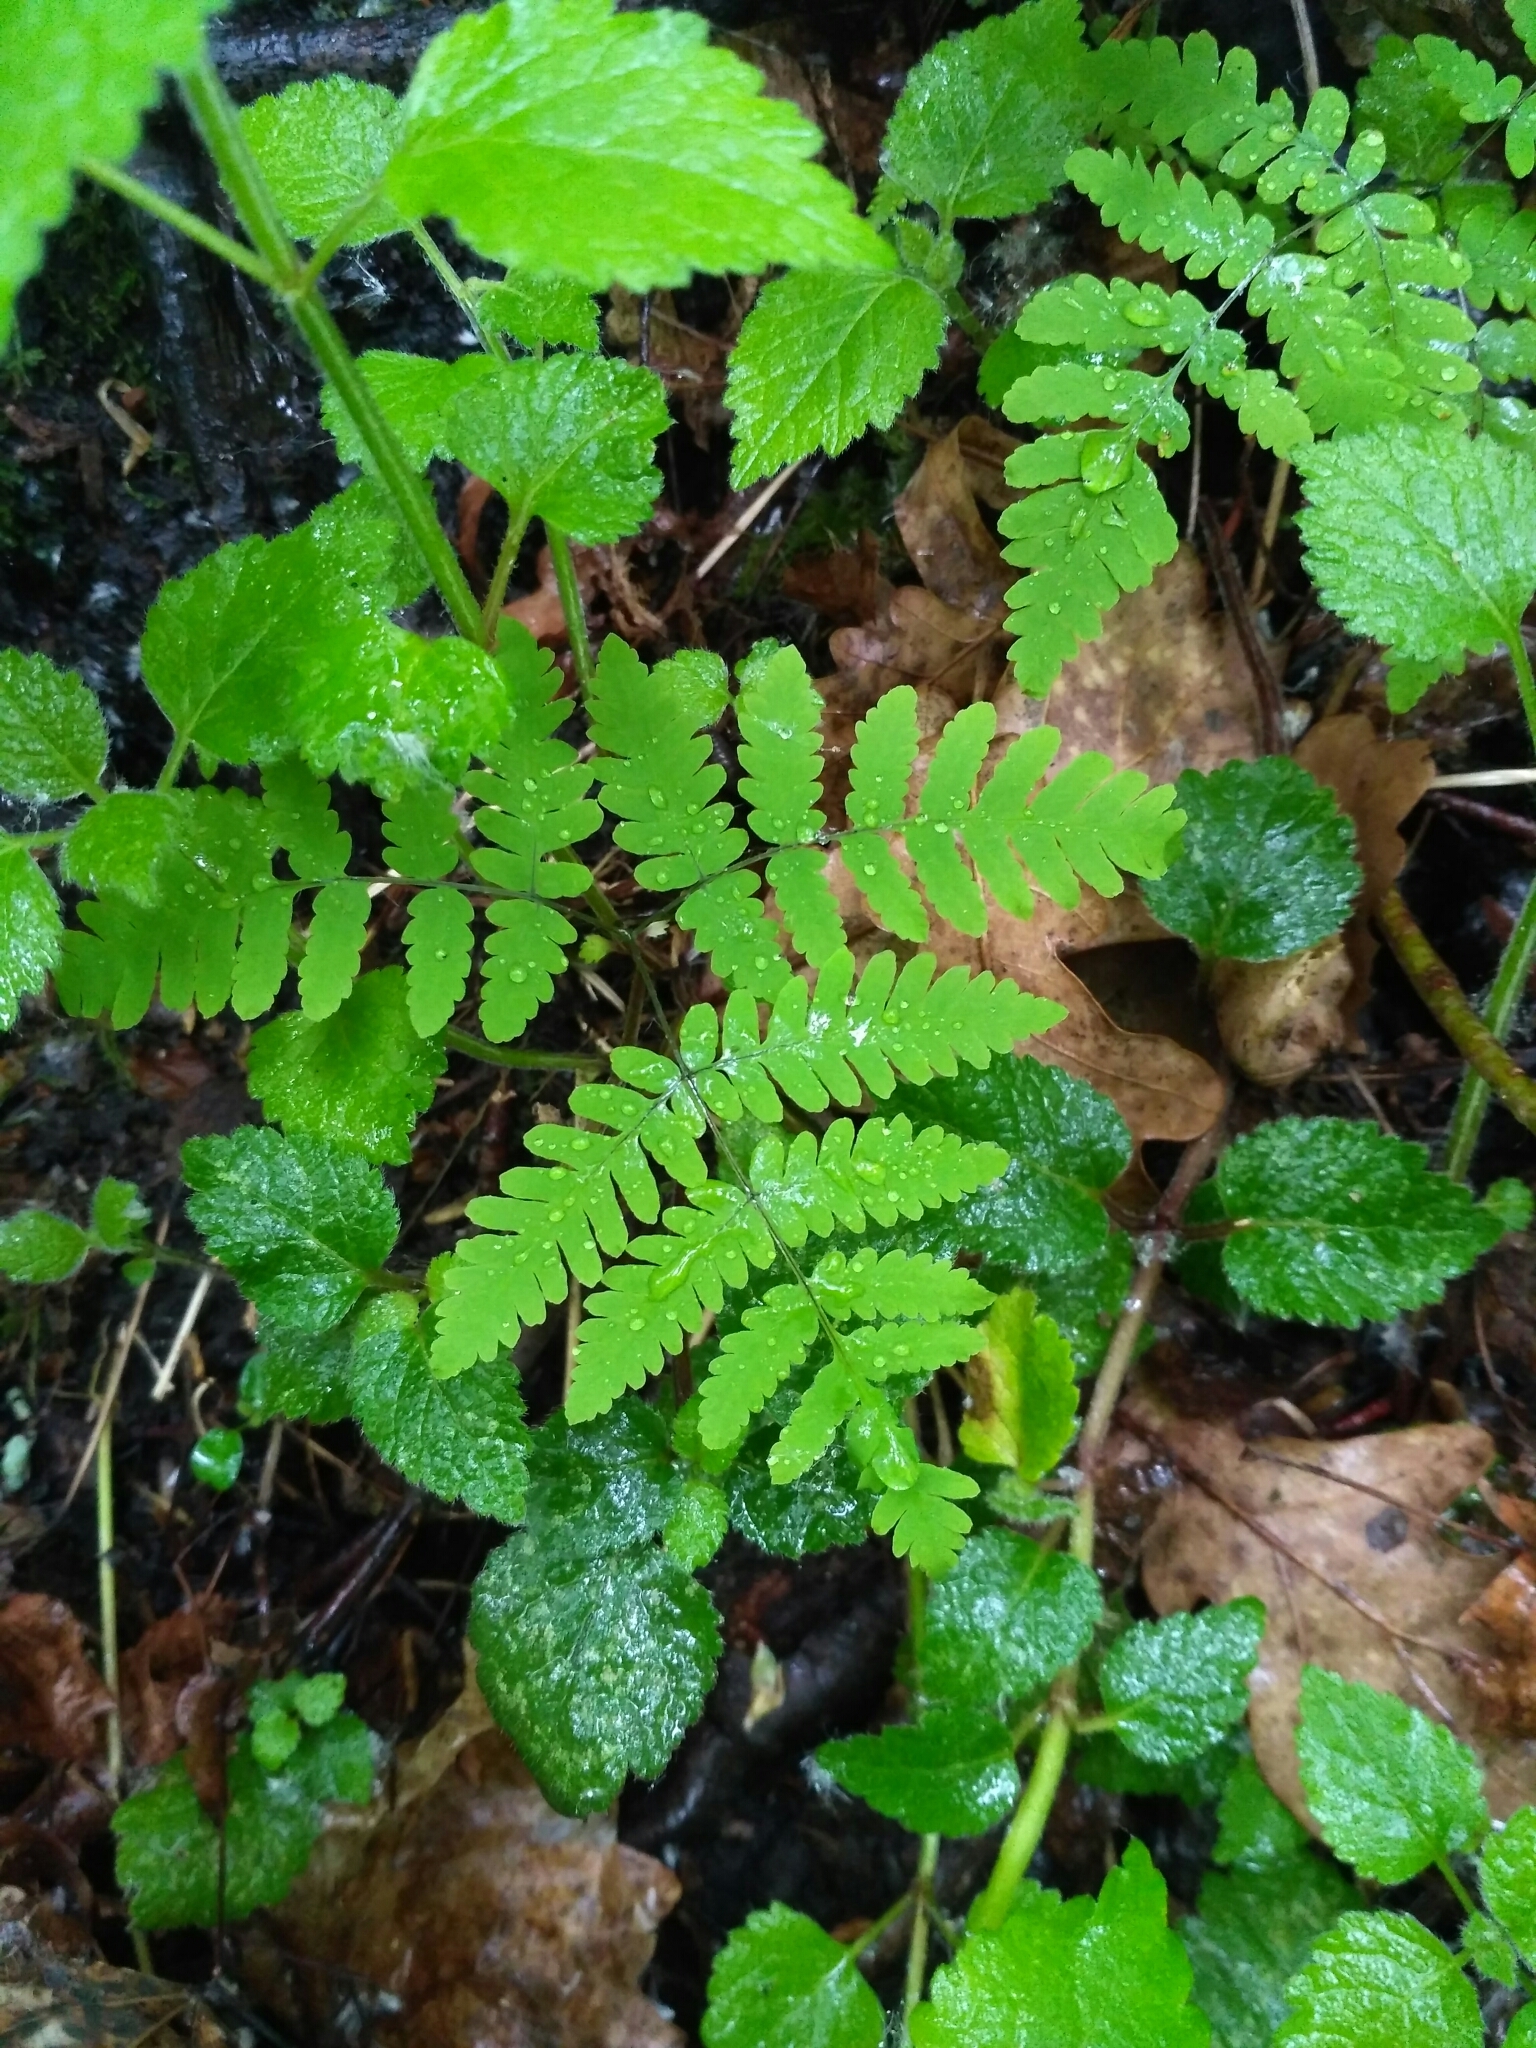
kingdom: Plantae
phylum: Tracheophyta
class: Polypodiopsida
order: Polypodiales
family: Cystopteridaceae
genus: Gymnocarpium
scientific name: Gymnocarpium dryopteris
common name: Oak fern
